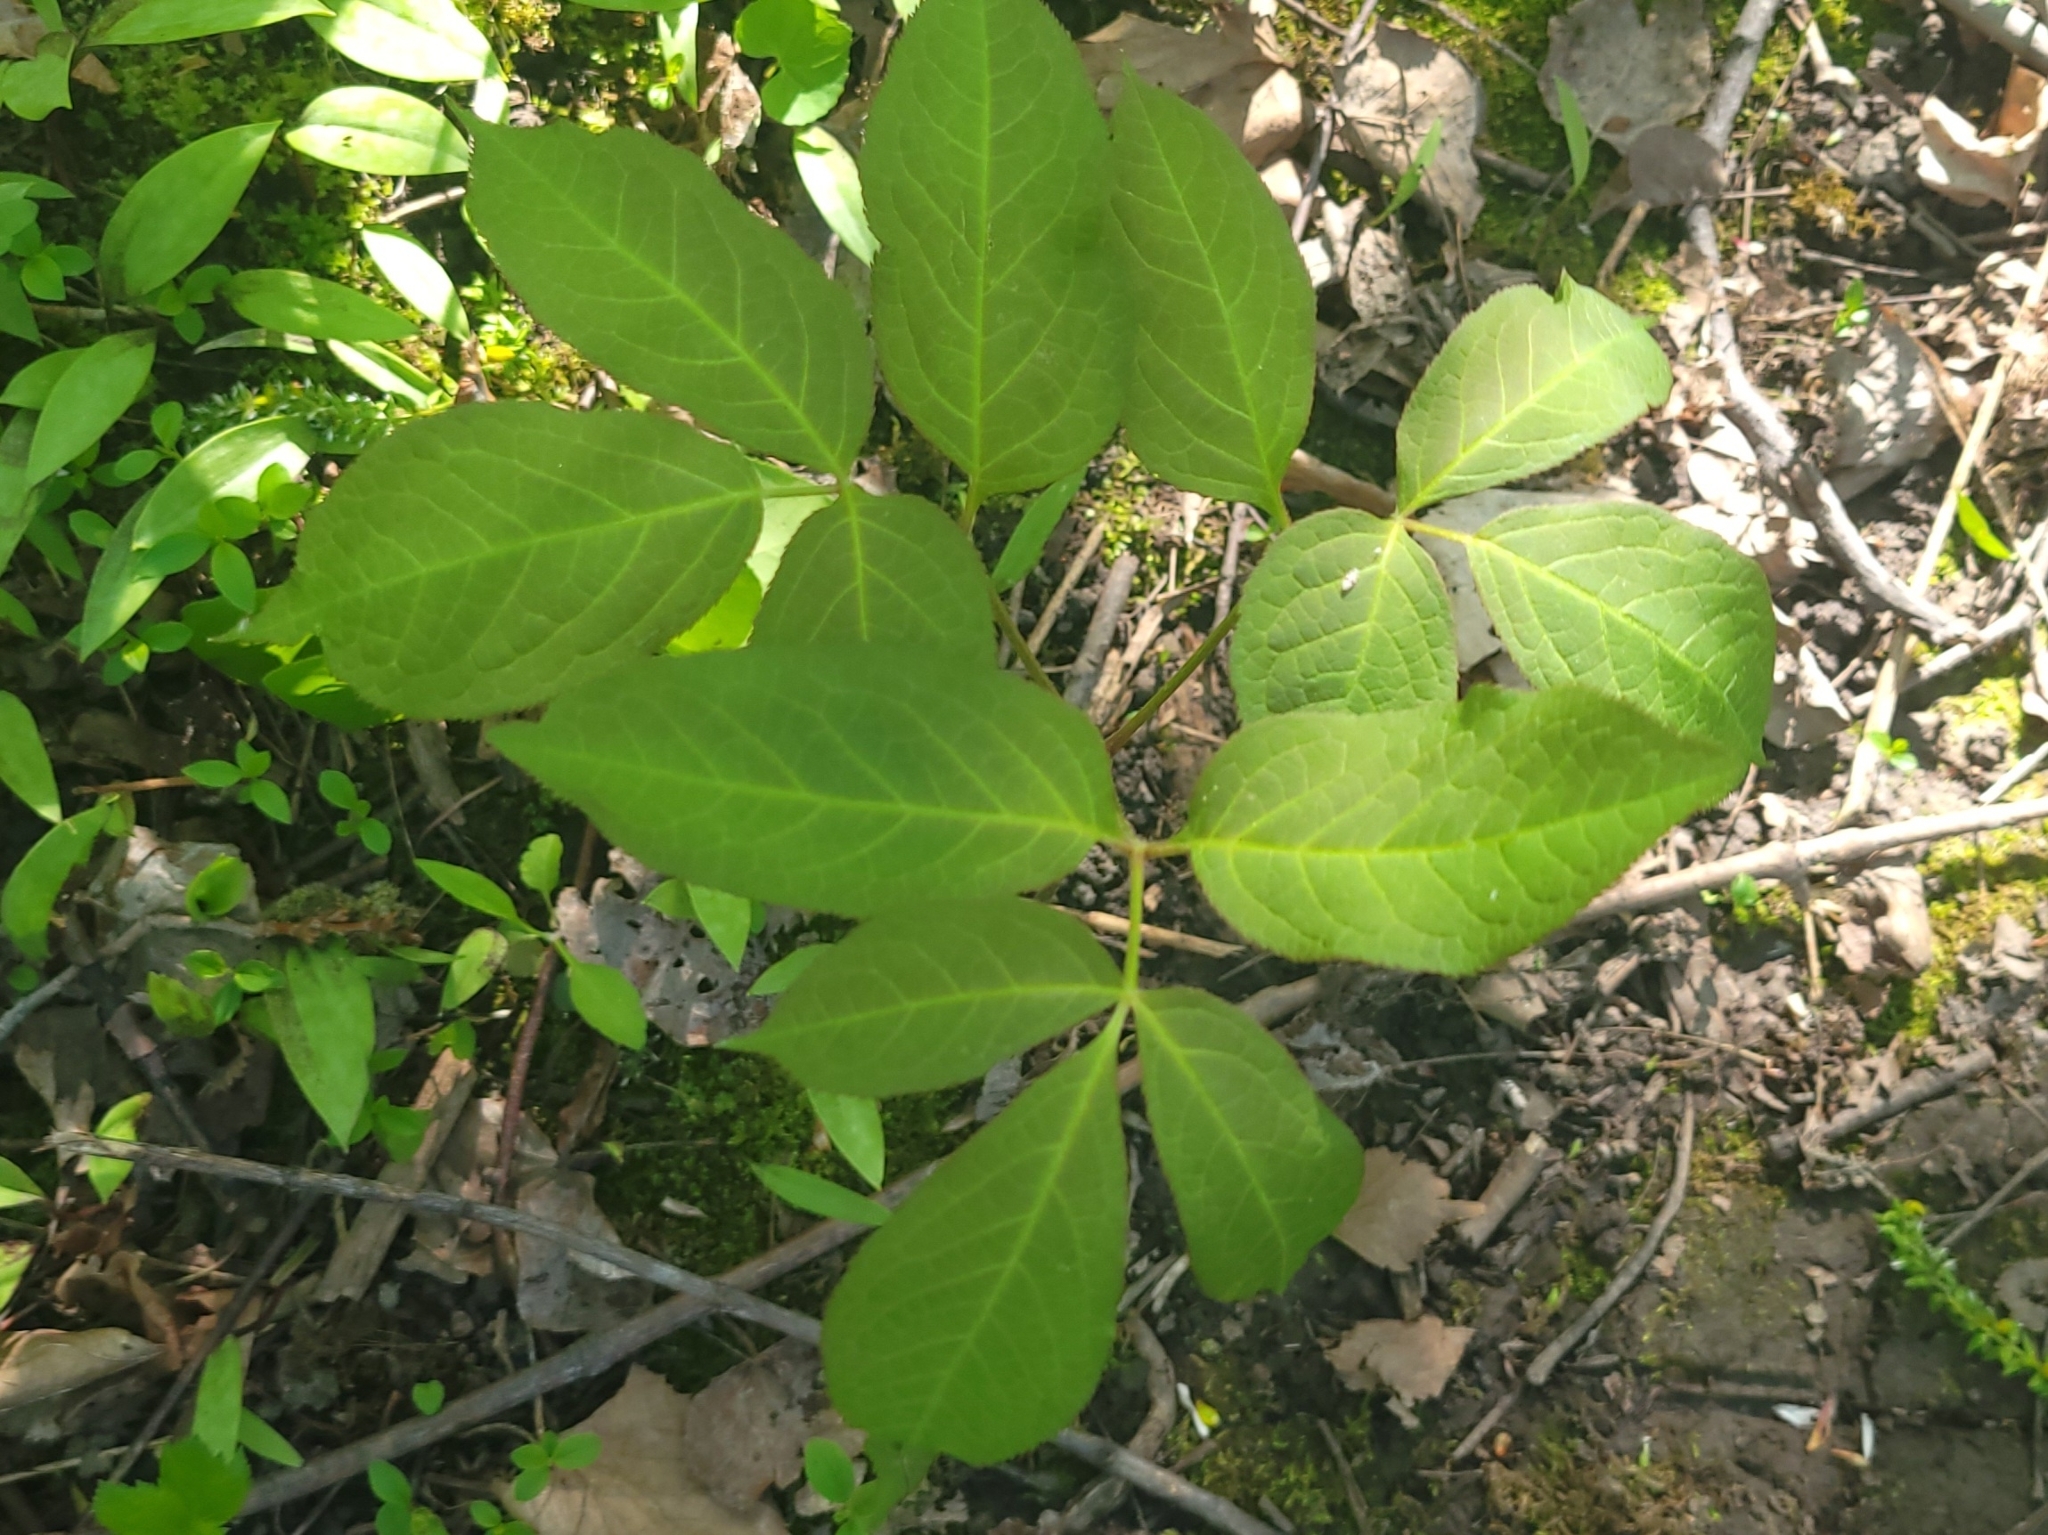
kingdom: Plantae
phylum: Tracheophyta
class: Magnoliopsida
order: Apiales
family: Araliaceae
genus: Aralia
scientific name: Aralia nudicaulis
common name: Wild sarsaparilla
